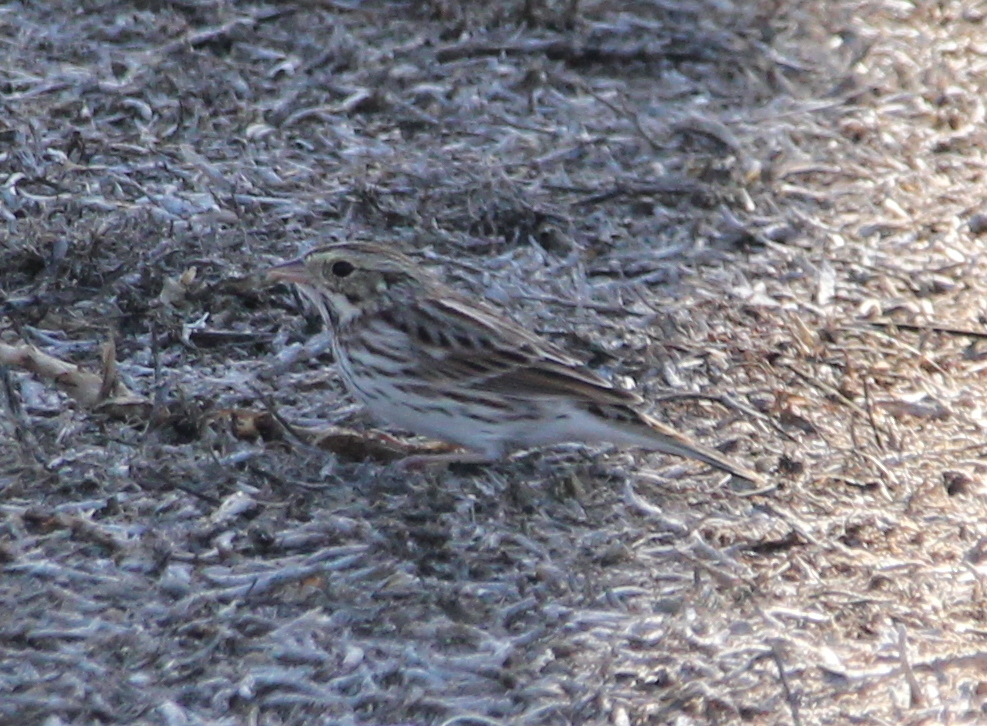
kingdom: Animalia
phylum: Chordata
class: Aves
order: Passeriformes
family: Passerellidae
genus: Passerculus
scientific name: Passerculus sandwichensis
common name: Savannah sparrow
